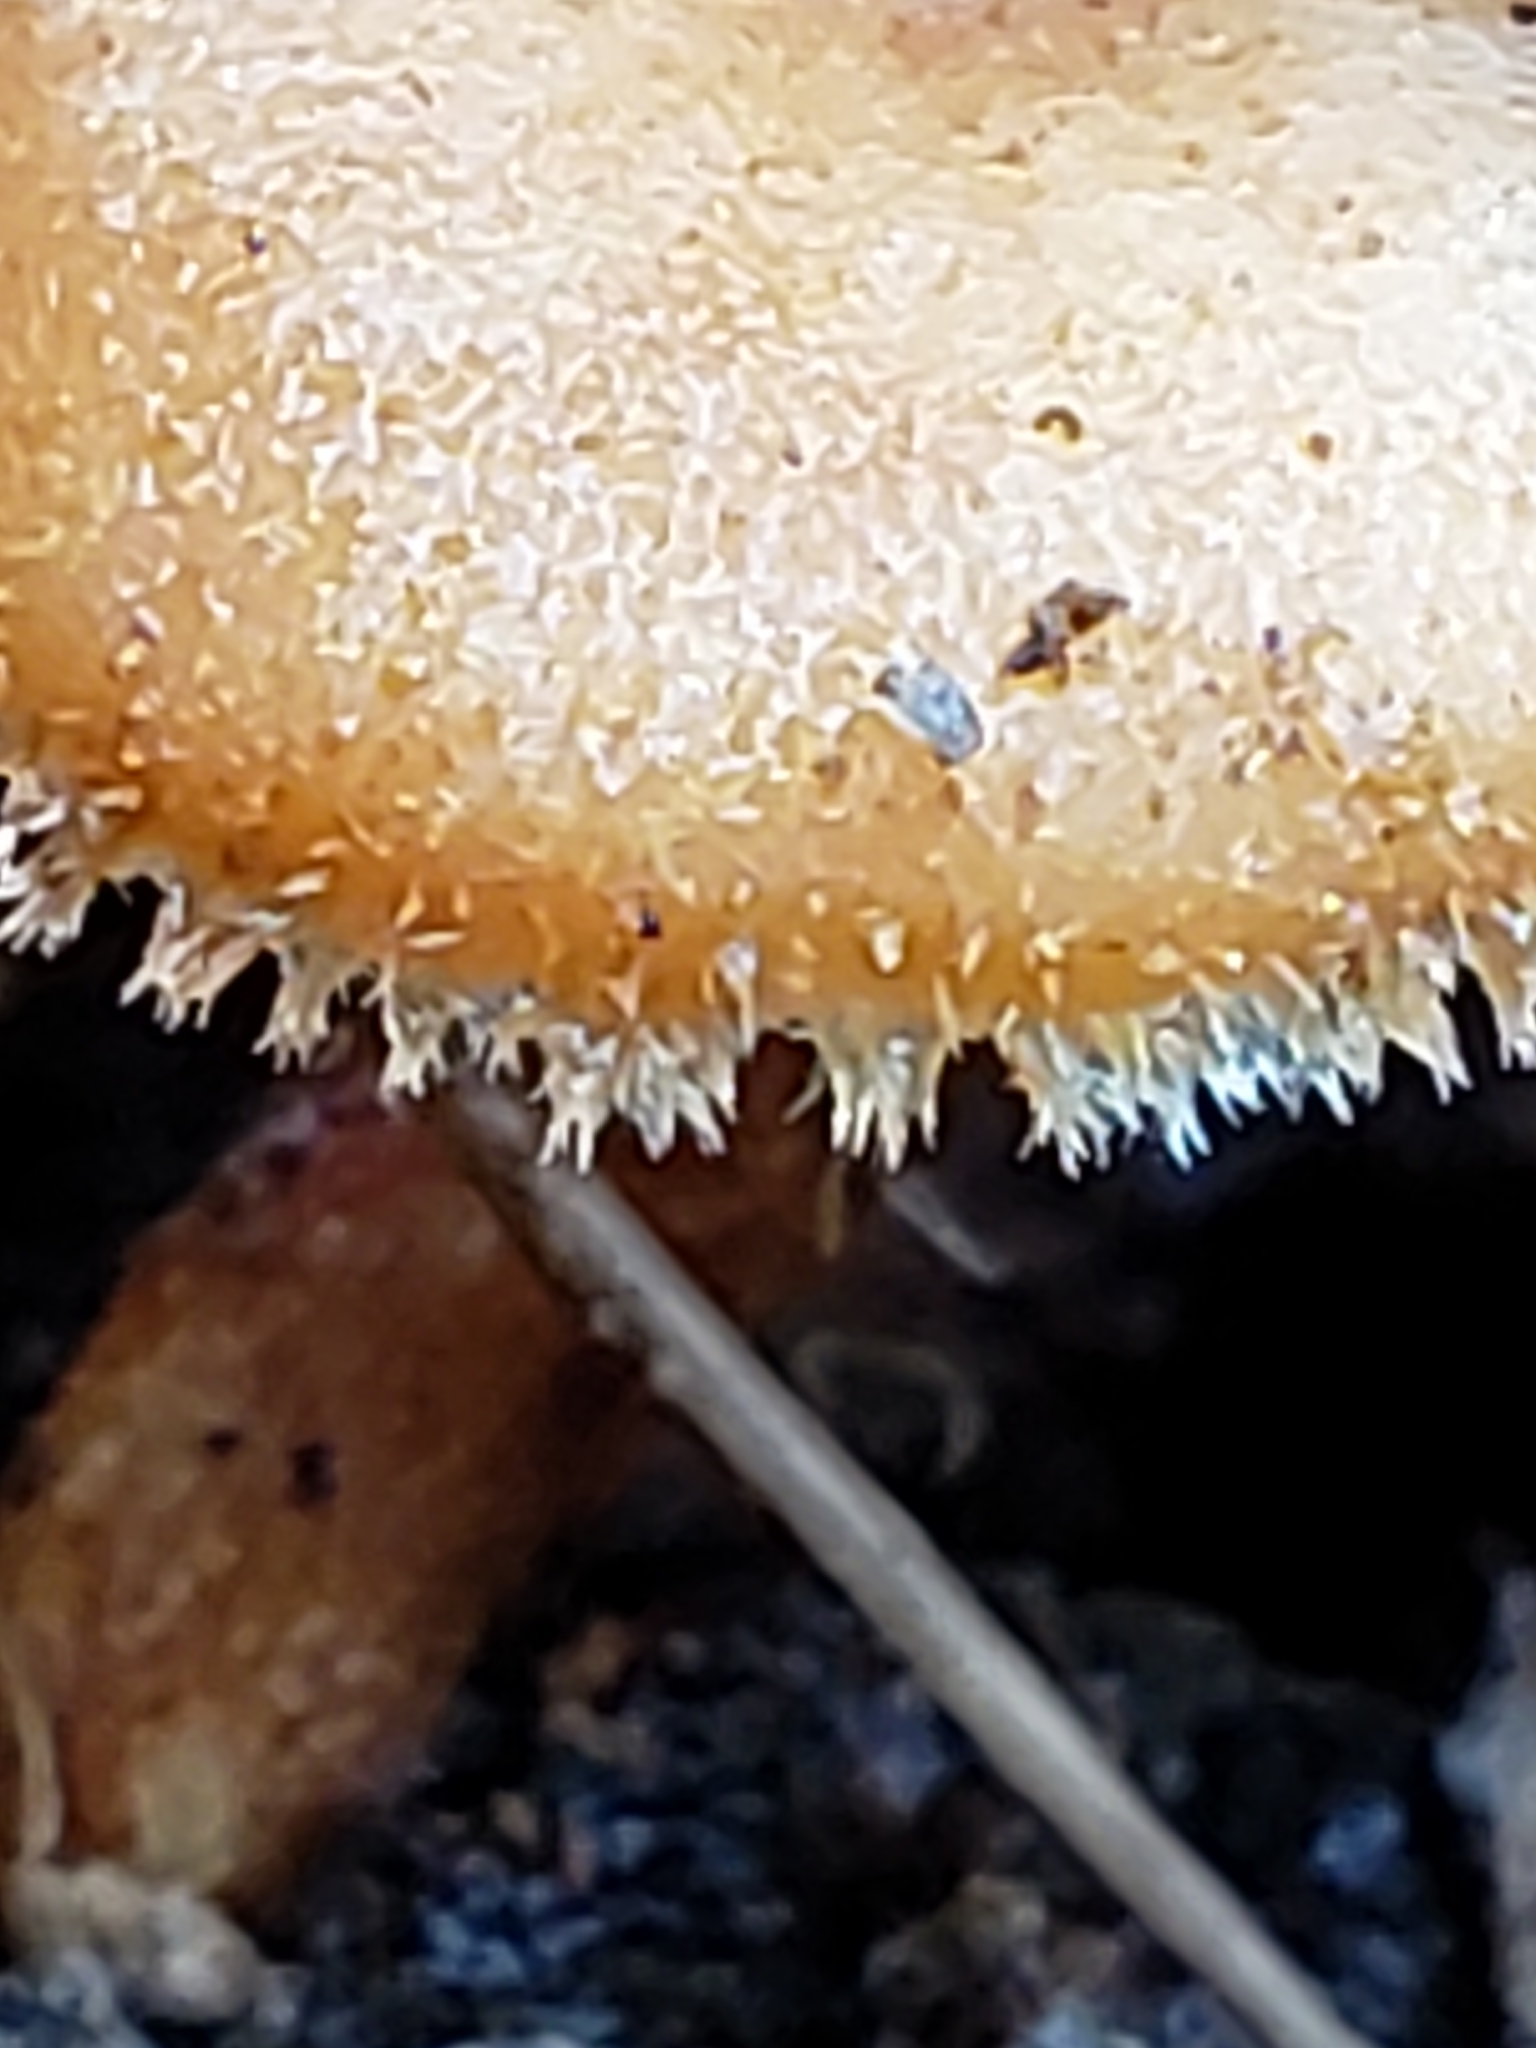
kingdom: Fungi
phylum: Basidiomycota
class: Agaricomycetes
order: Polyporales
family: Polyporaceae
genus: Lentinus
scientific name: Lentinus arcularius
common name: Spring polypore
